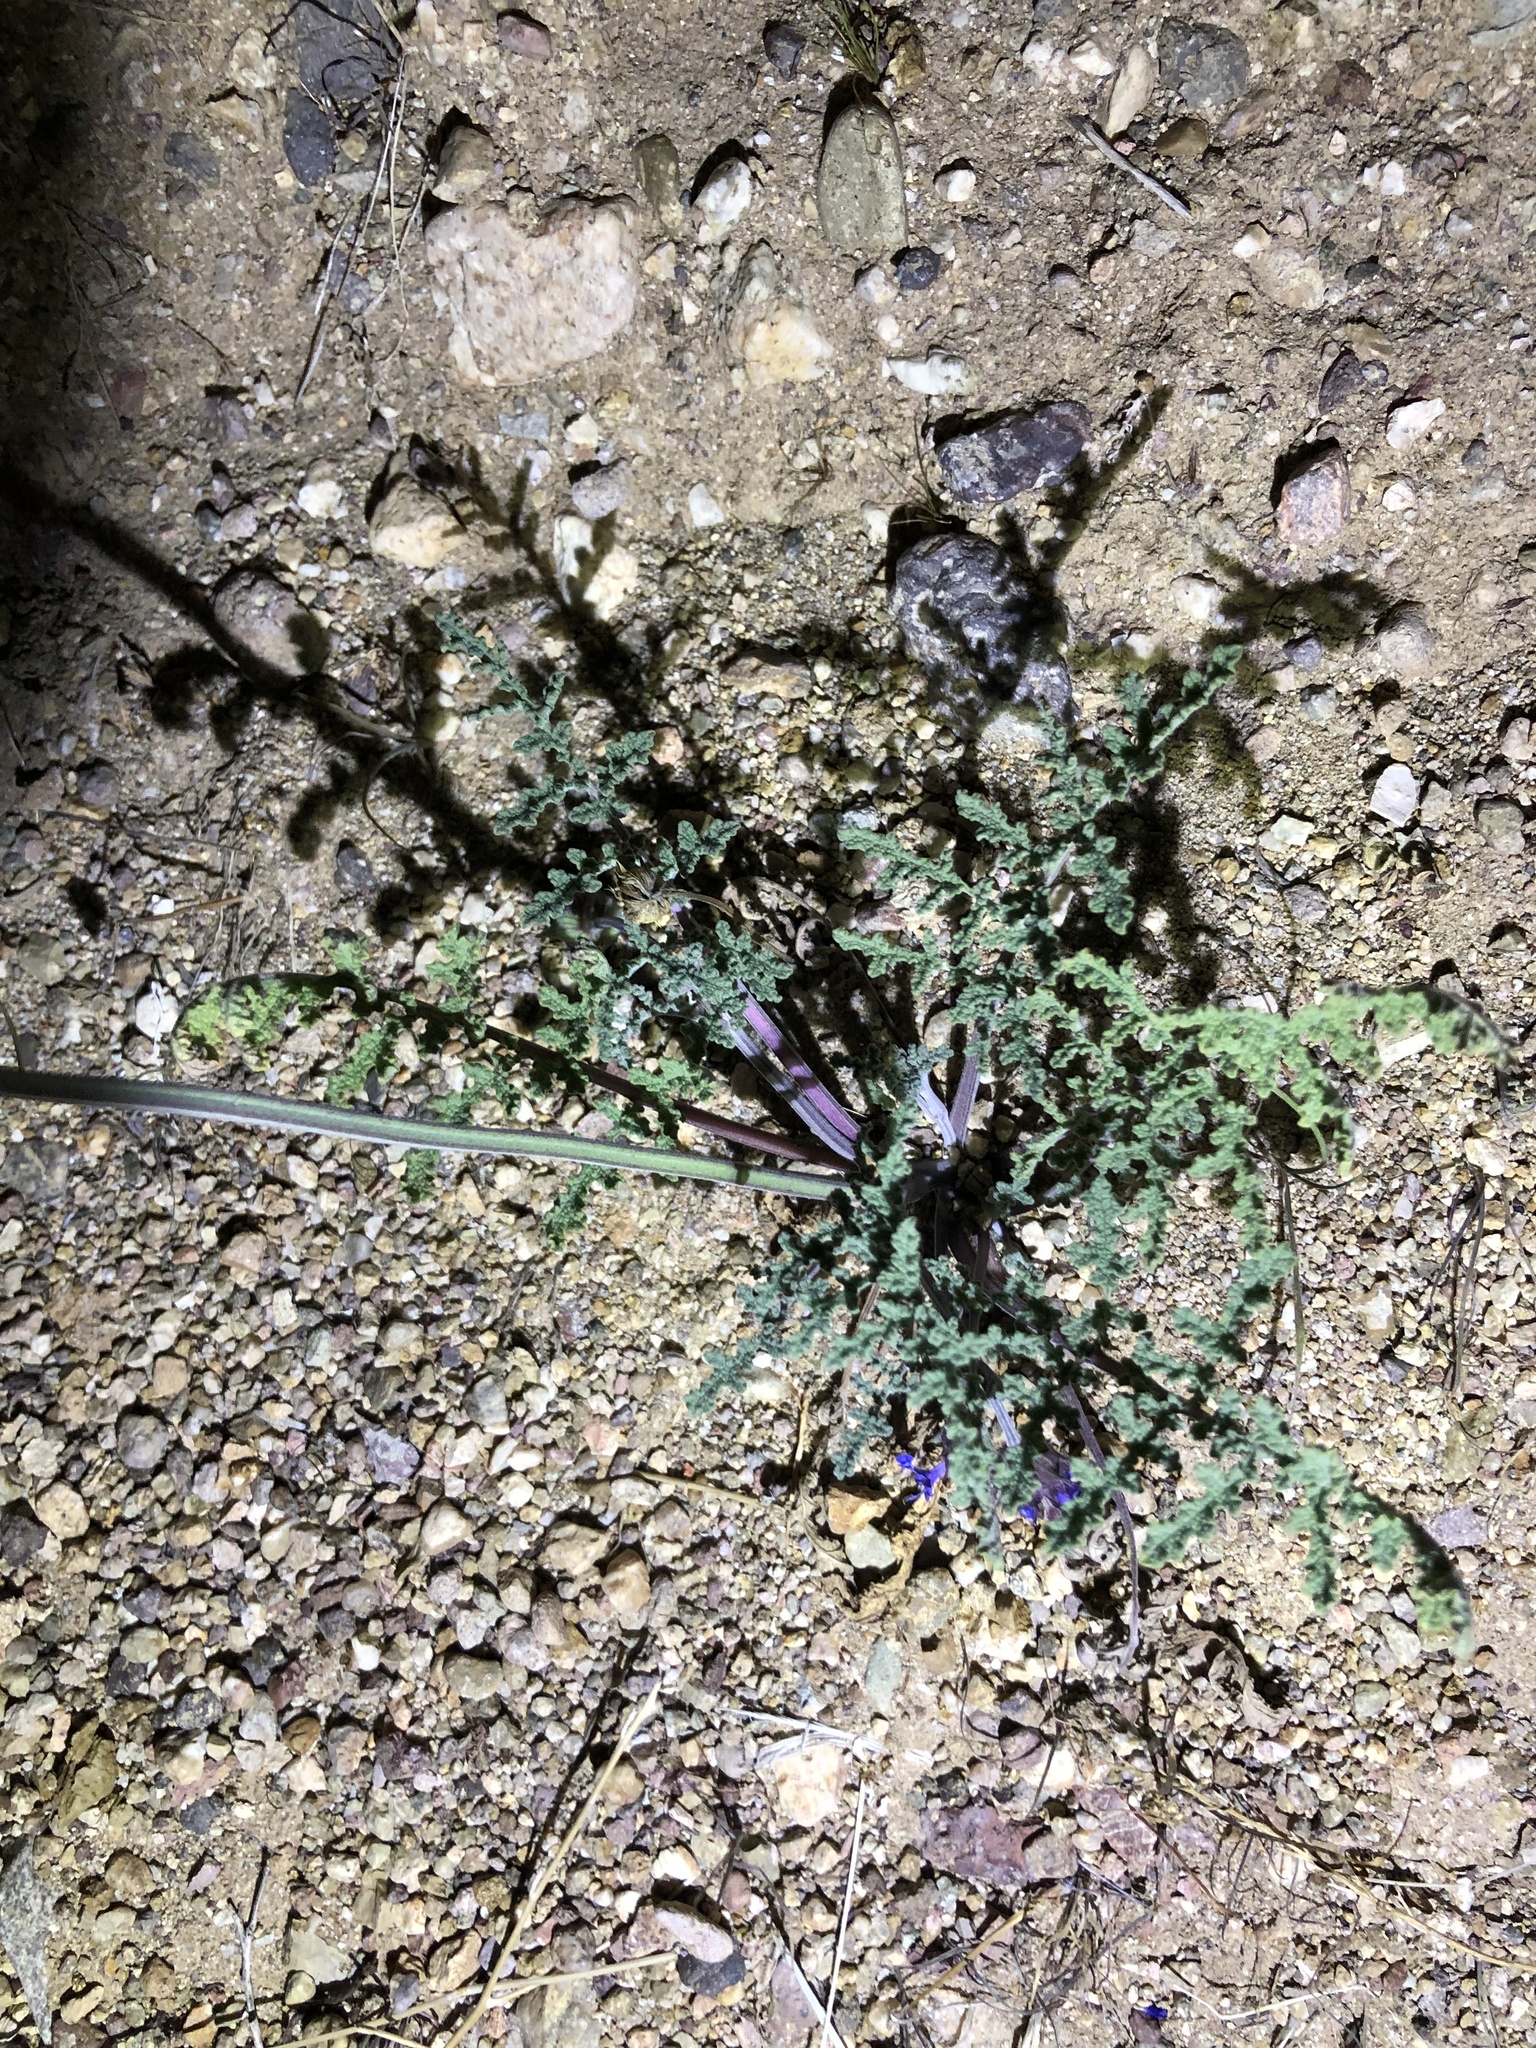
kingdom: Plantae
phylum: Tracheophyta
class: Magnoliopsida
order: Lamiales
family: Lamiaceae
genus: Salvia
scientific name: Salvia columbariae
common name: Chia
